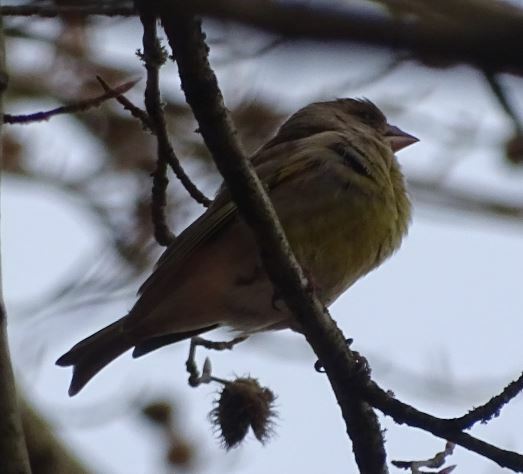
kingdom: Plantae
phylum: Tracheophyta
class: Liliopsida
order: Poales
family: Poaceae
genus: Chloris
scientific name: Chloris chloris
